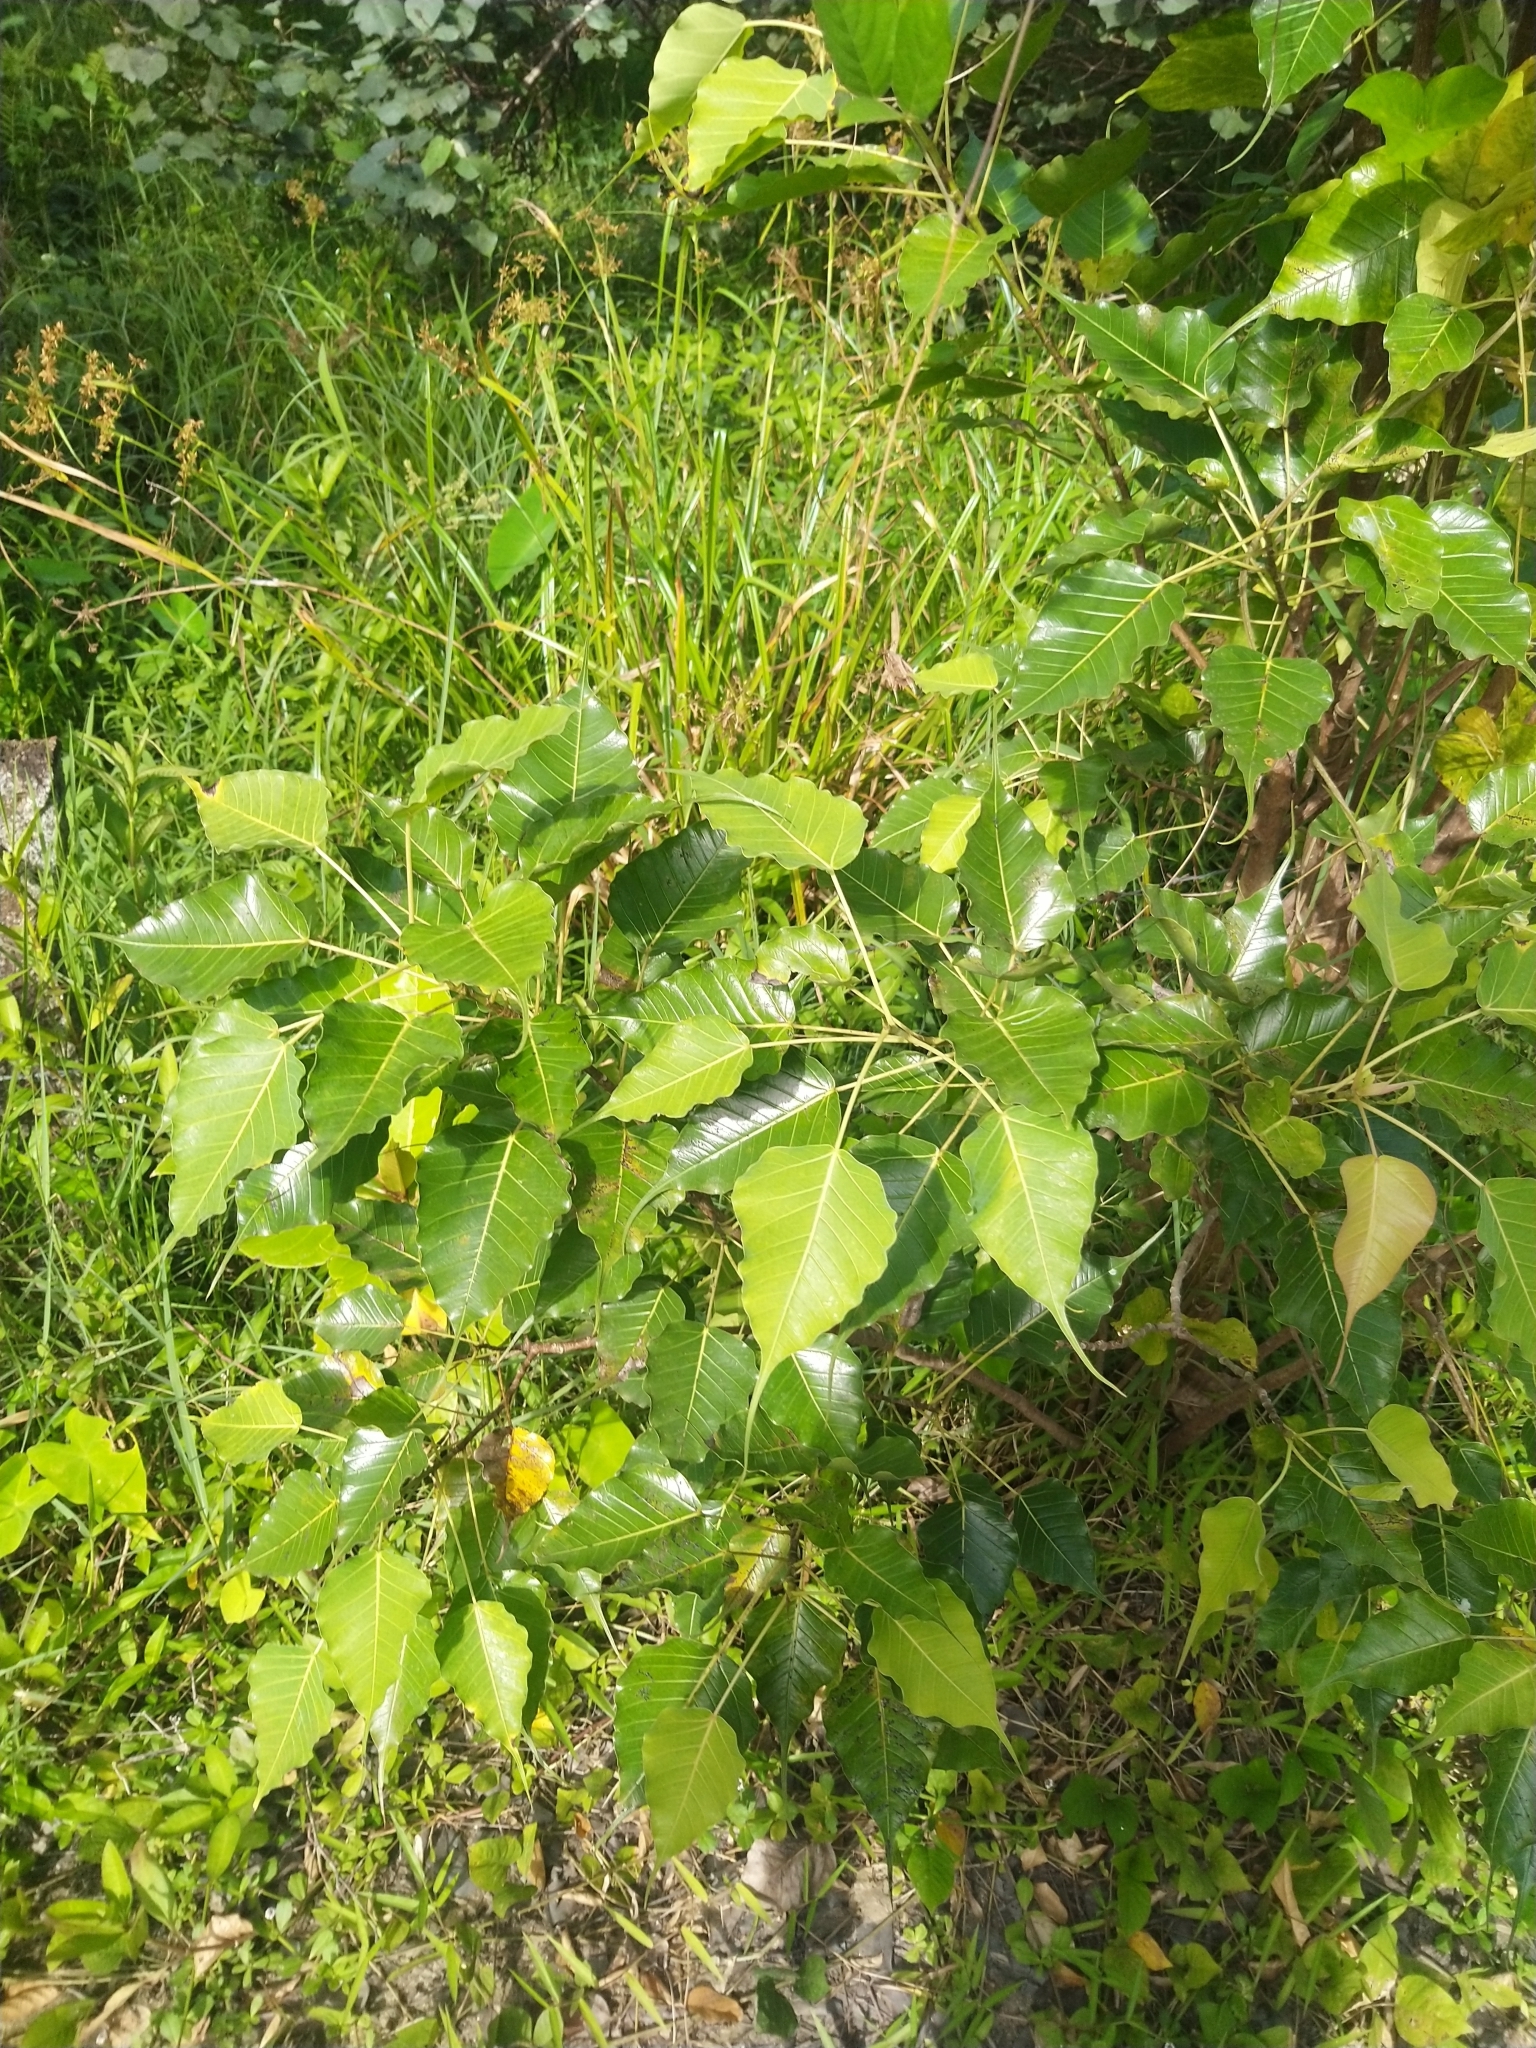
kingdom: Plantae
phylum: Tracheophyta
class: Magnoliopsida
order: Rosales
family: Moraceae
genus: Ficus
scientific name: Ficus religiosa
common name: Bodhi tree
